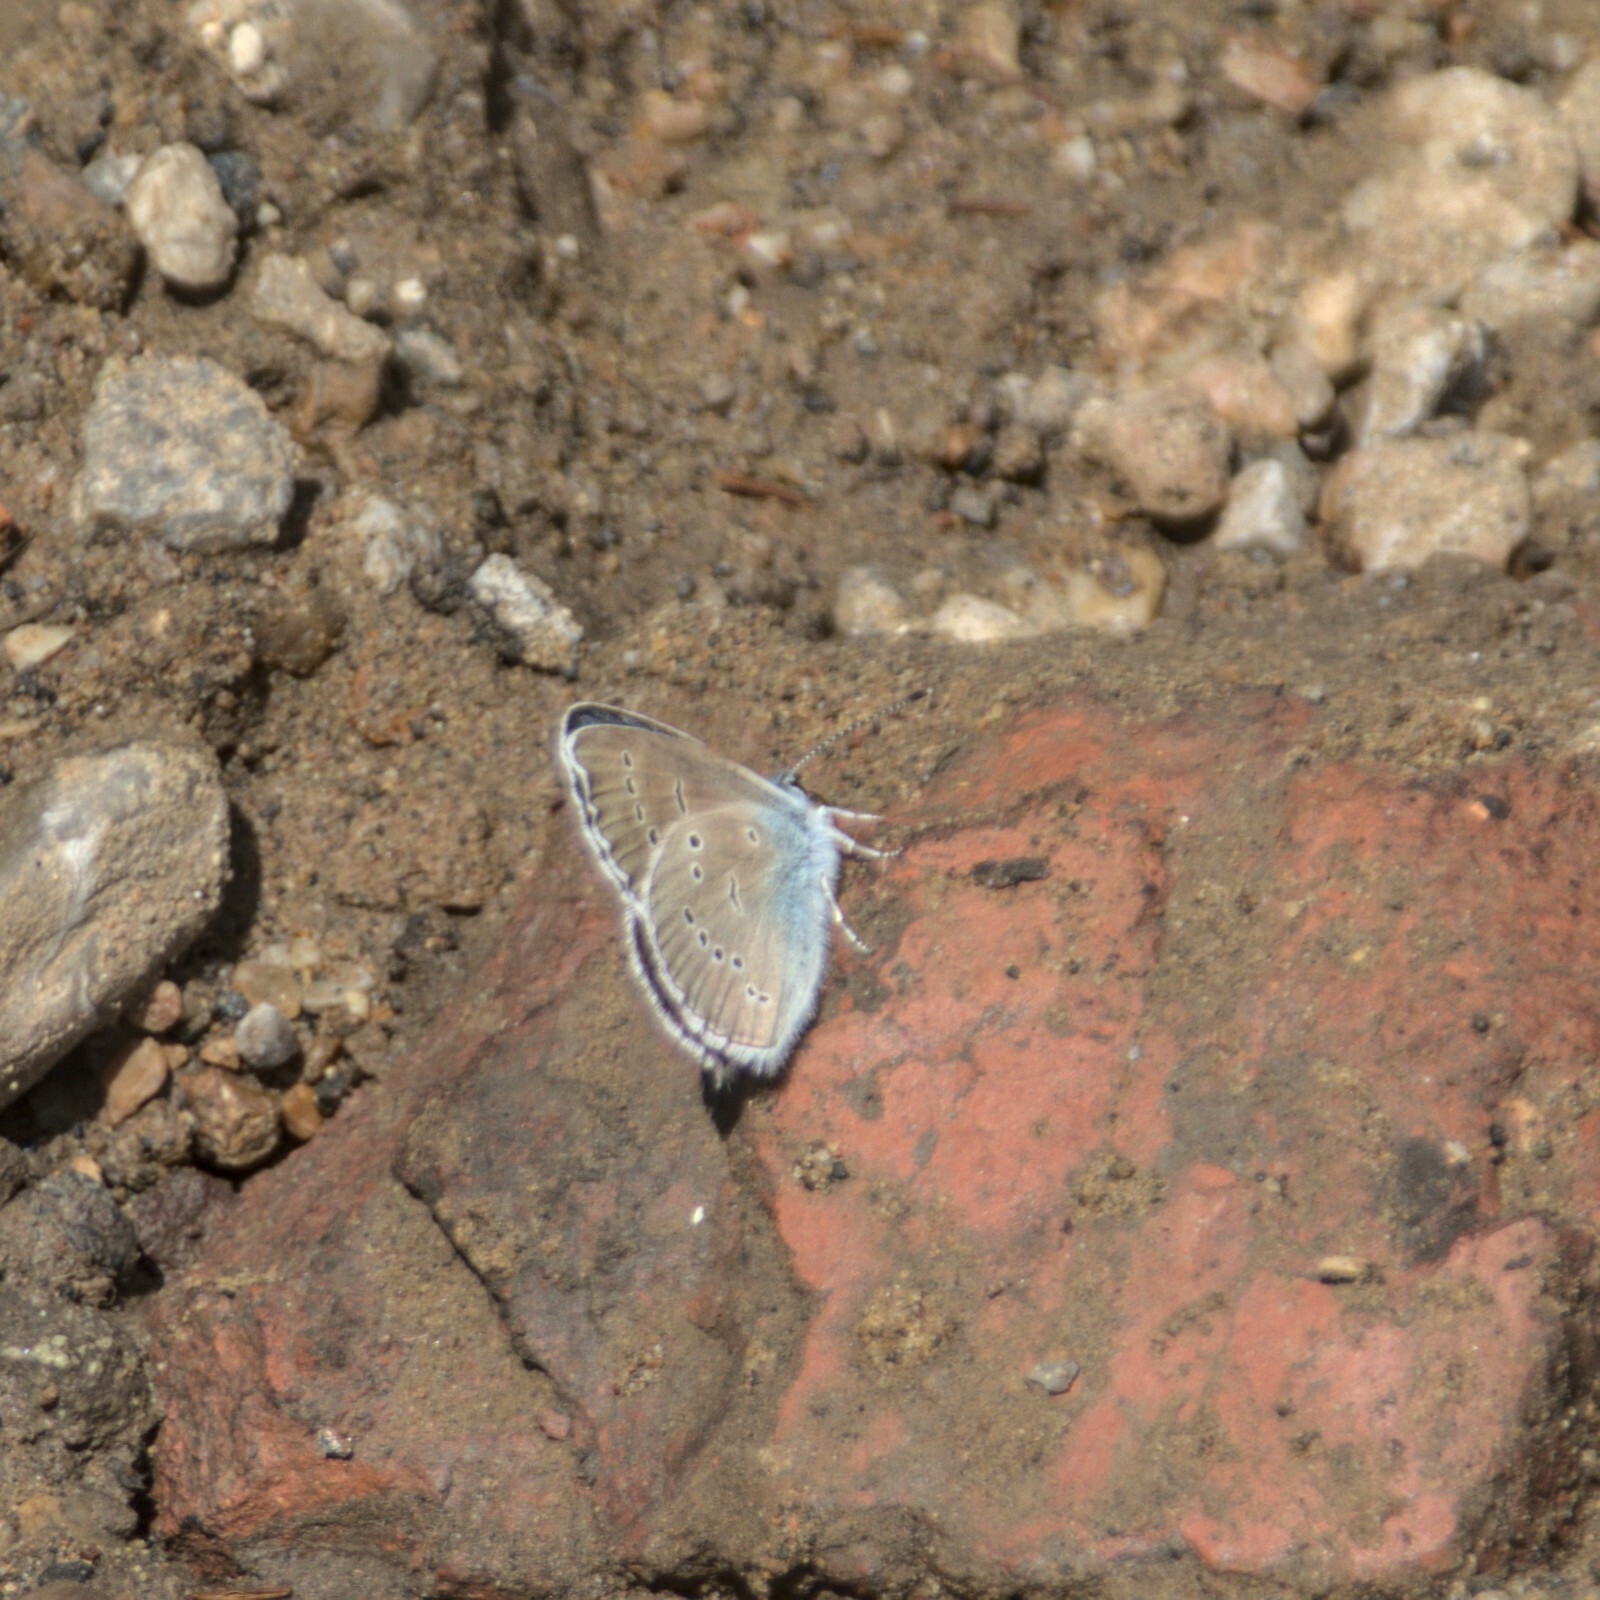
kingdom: Animalia
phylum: Arthropoda
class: Insecta
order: Lepidoptera
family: Lycaenidae
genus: Cyaniris
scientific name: Cyaniris semiargus
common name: Mazarine blue
